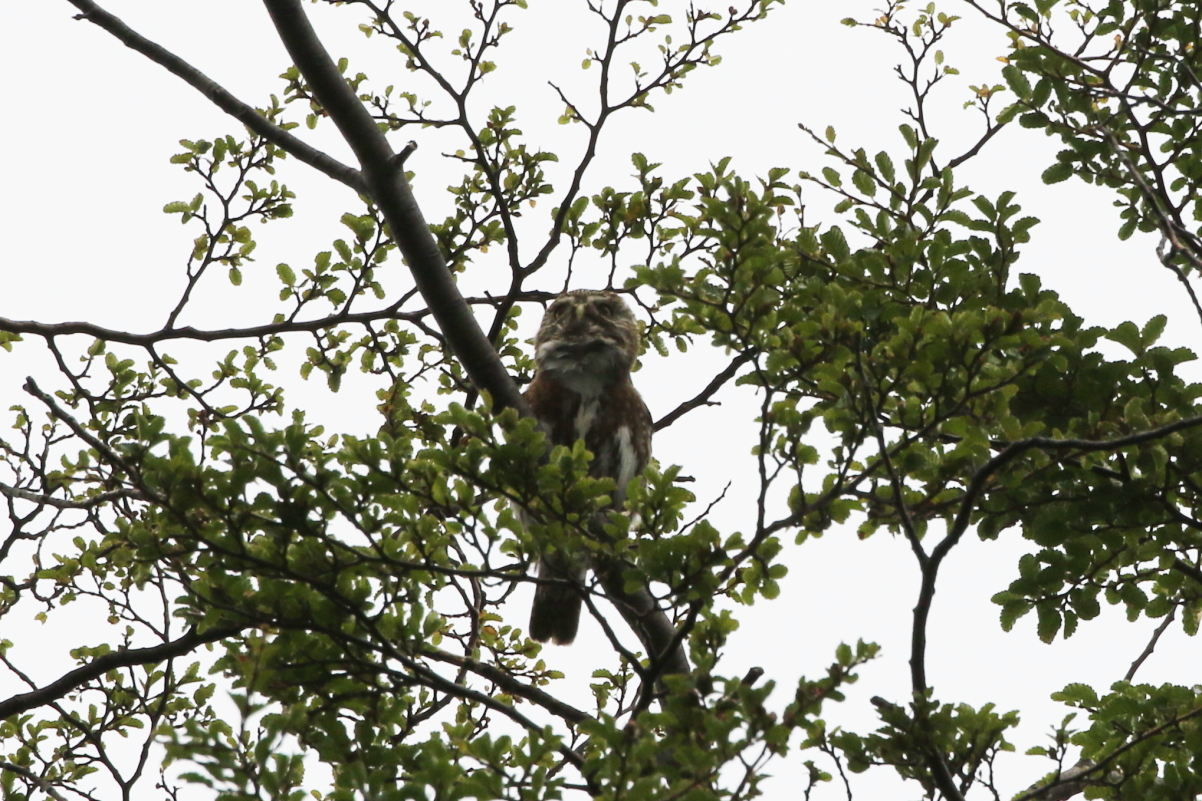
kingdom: Animalia
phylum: Chordata
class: Aves
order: Strigiformes
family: Strigidae
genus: Glaucidium
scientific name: Glaucidium nana
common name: Austral pygmy-owl
